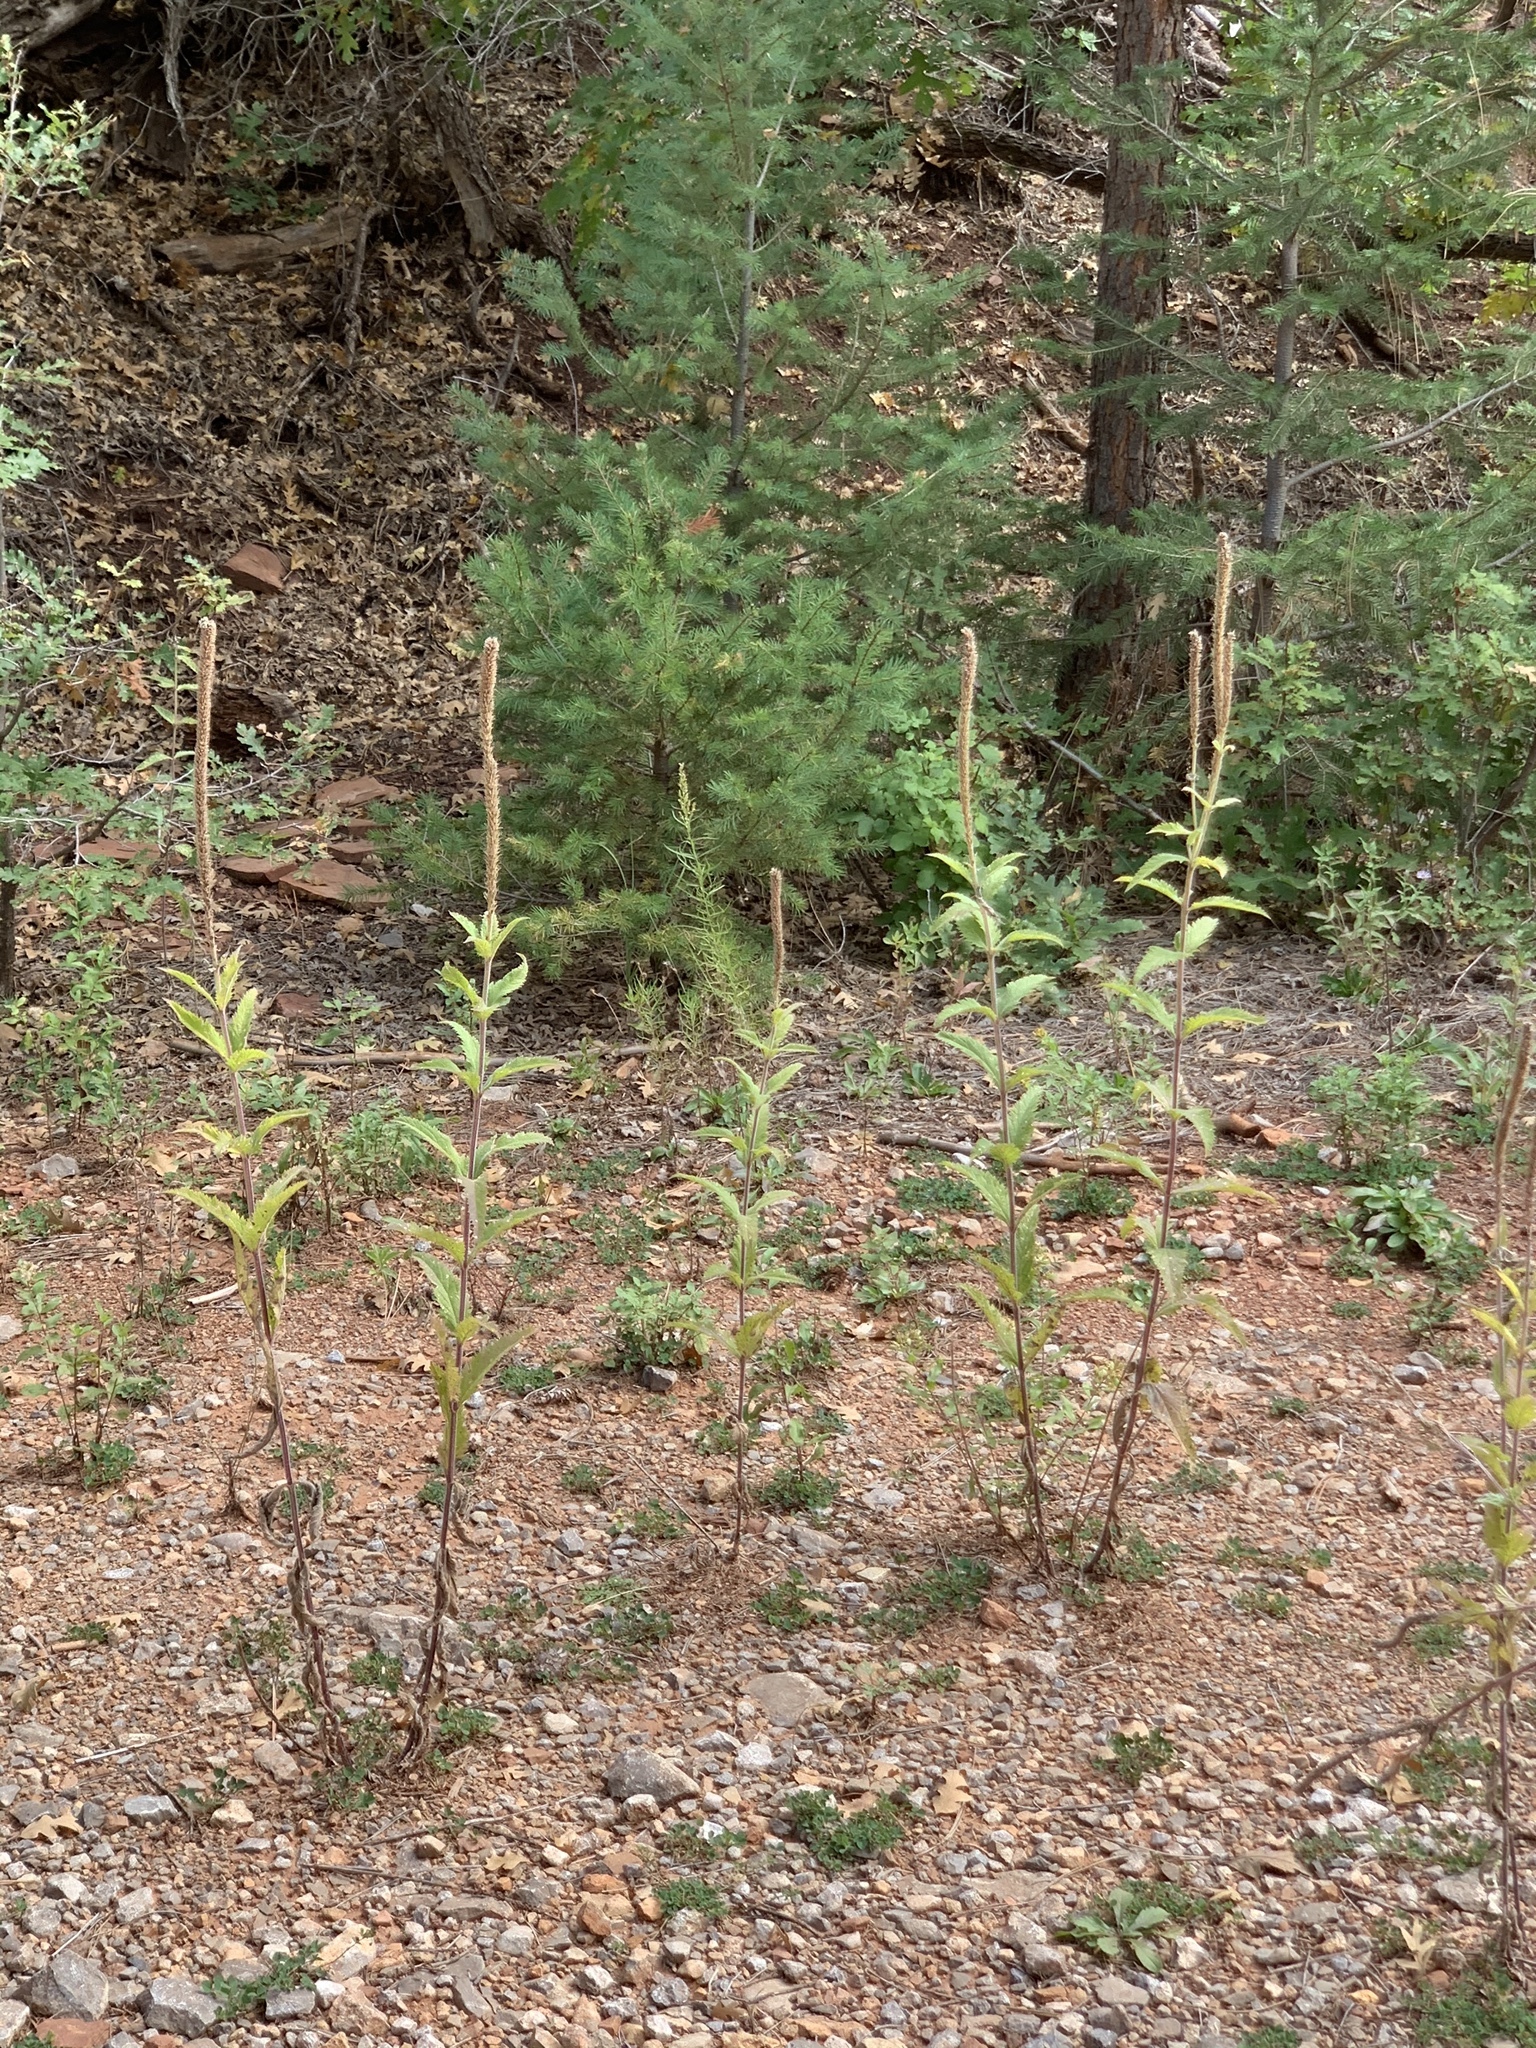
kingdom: Plantae
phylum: Tracheophyta
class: Magnoliopsida
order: Lamiales
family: Verbenaceae
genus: Verbena
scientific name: Verbena macdougalii
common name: New mexico vervain
